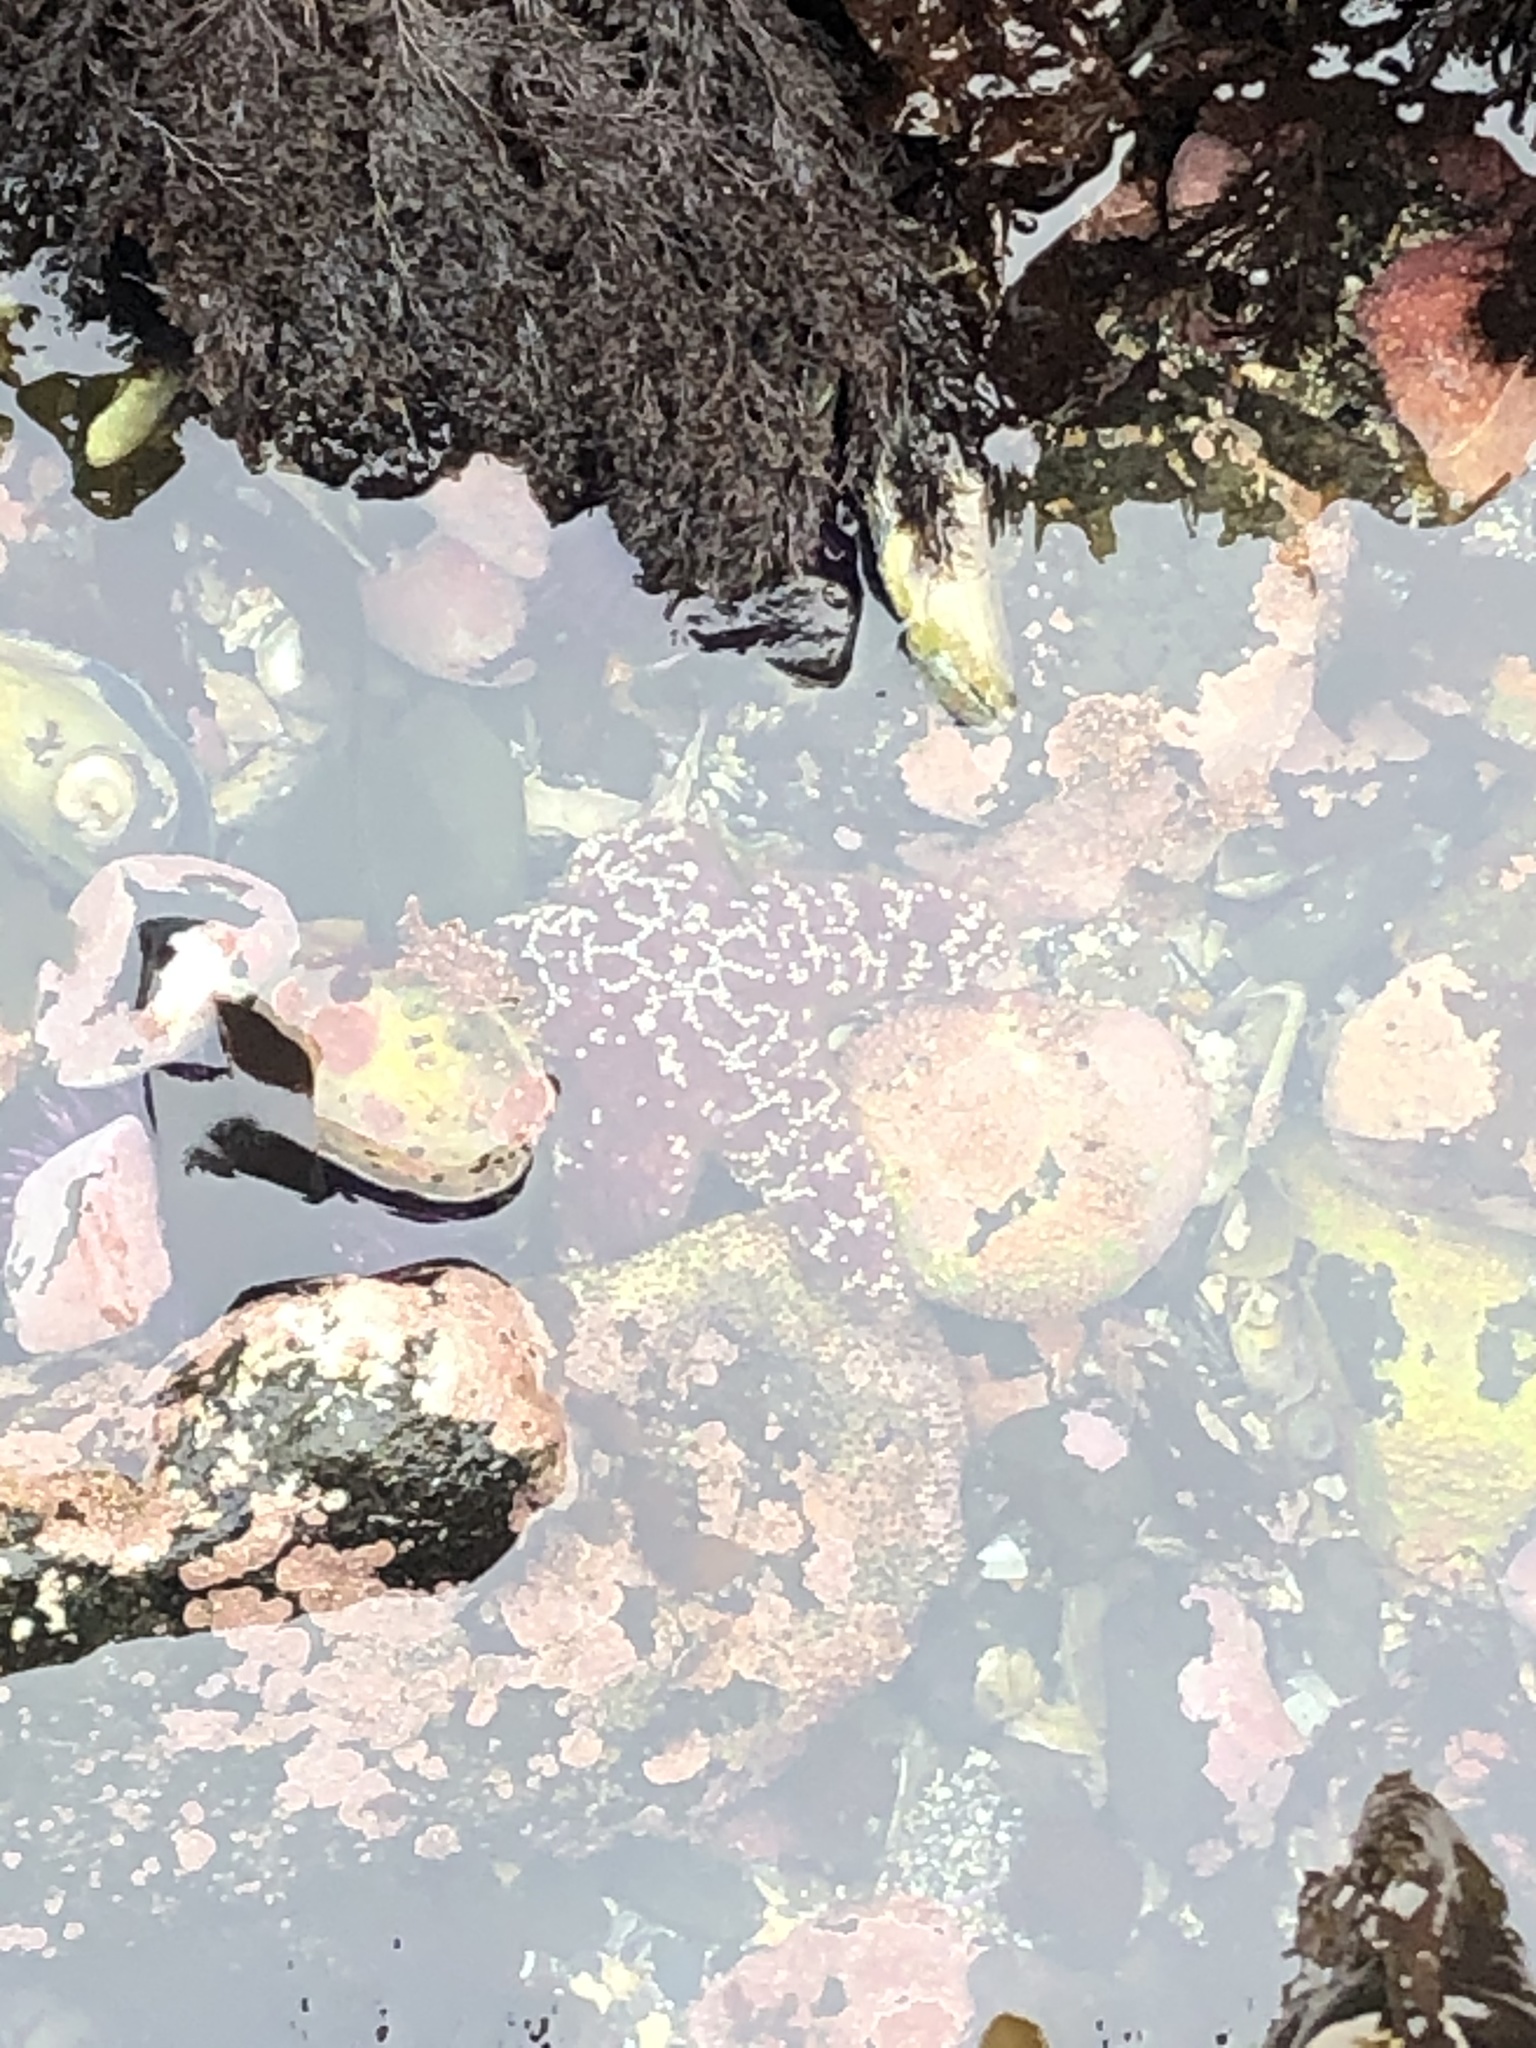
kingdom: Animalia
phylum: Echinodermata
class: Asteroidea
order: Forcipulatida
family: Asteriidae
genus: Pisaster
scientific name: Pisaster ochraceus
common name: Ochre stars
